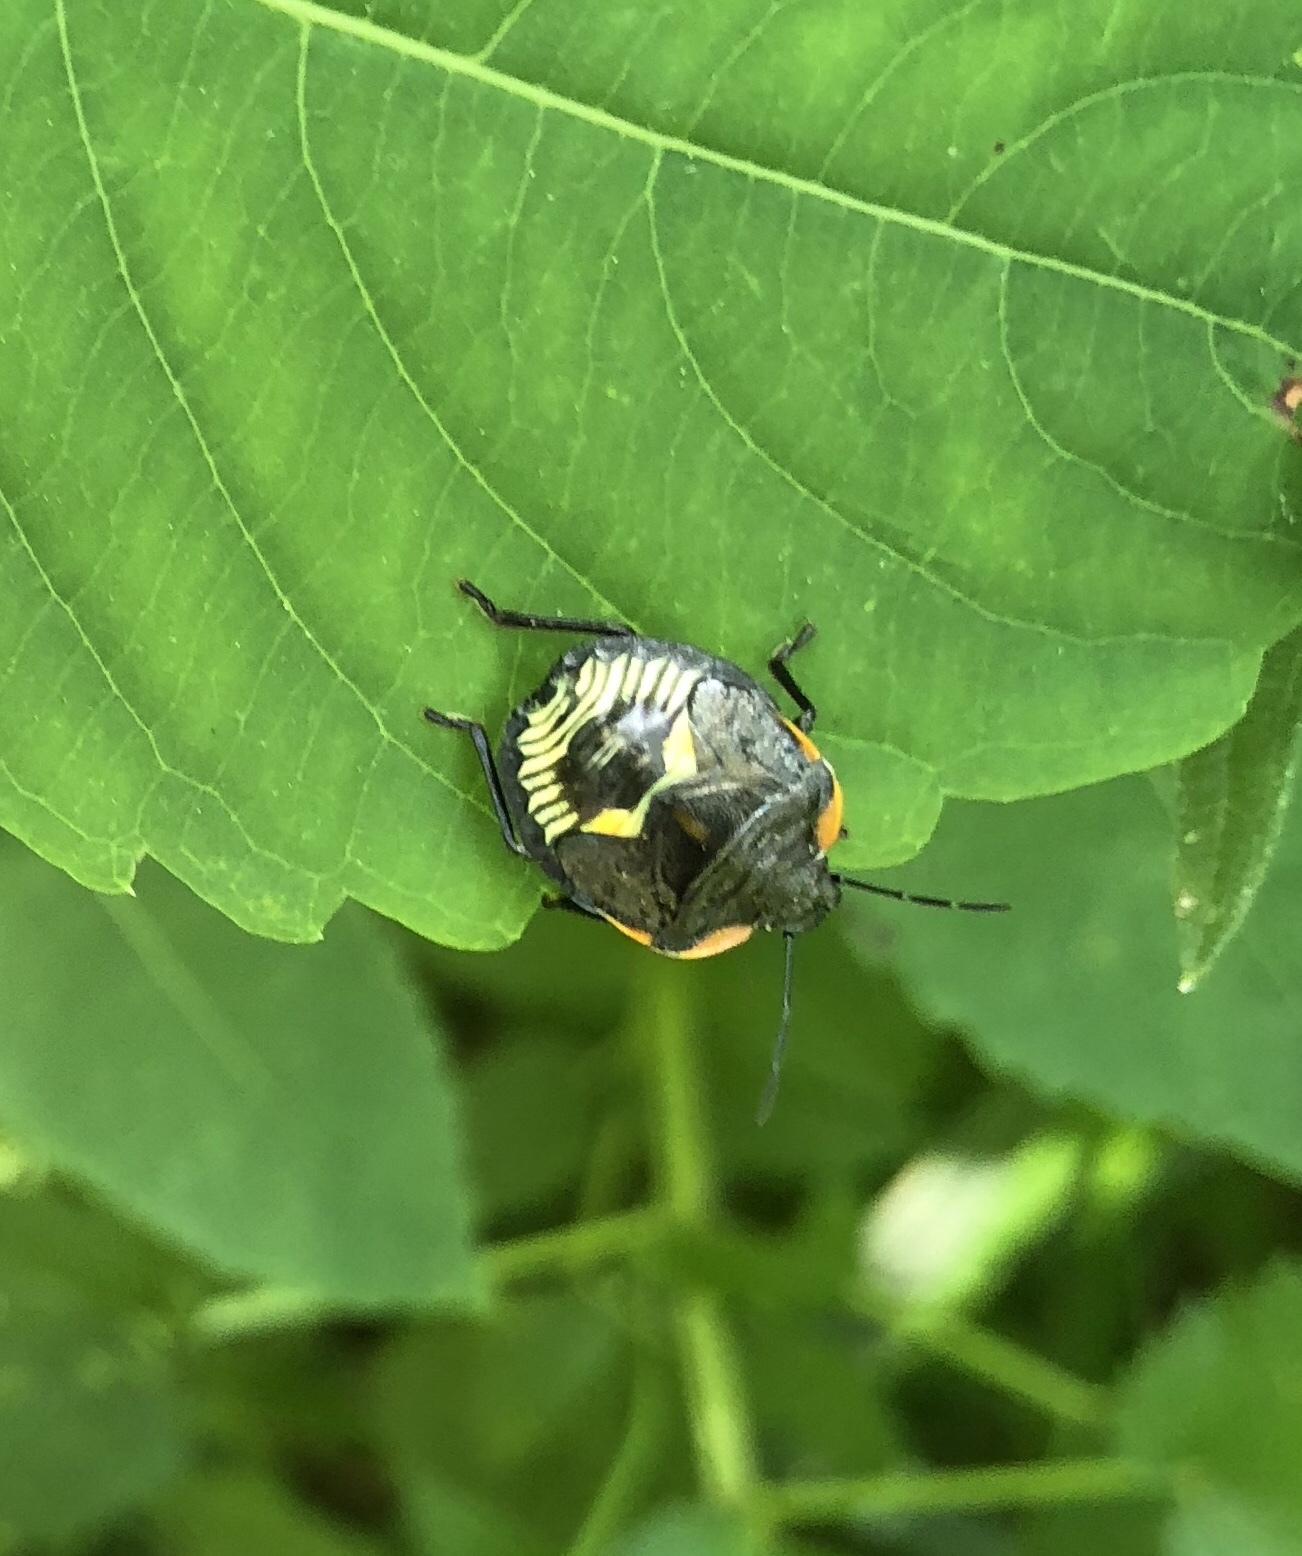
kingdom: Animalia
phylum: Arthropoda
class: Insecta
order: Hemiptera
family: Pentatomidae
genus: Chinavia
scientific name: Chinavia hilaris
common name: Green stink bug
